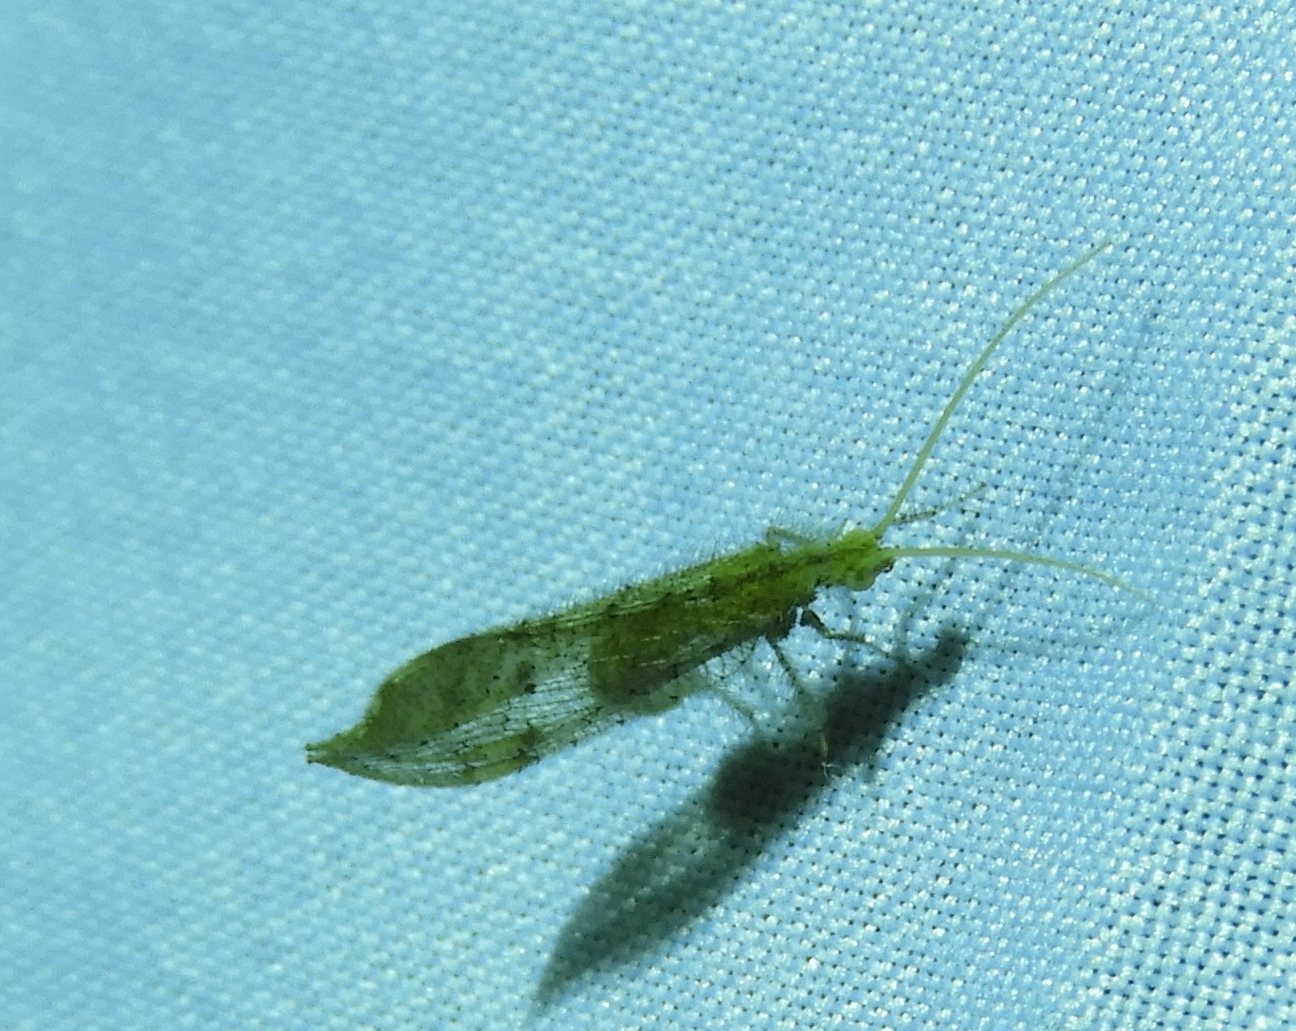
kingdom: Animalia
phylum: Arthropoda
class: Insecta
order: Neuroptera
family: Berothidae
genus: Lomamyia
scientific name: Lomamyia
